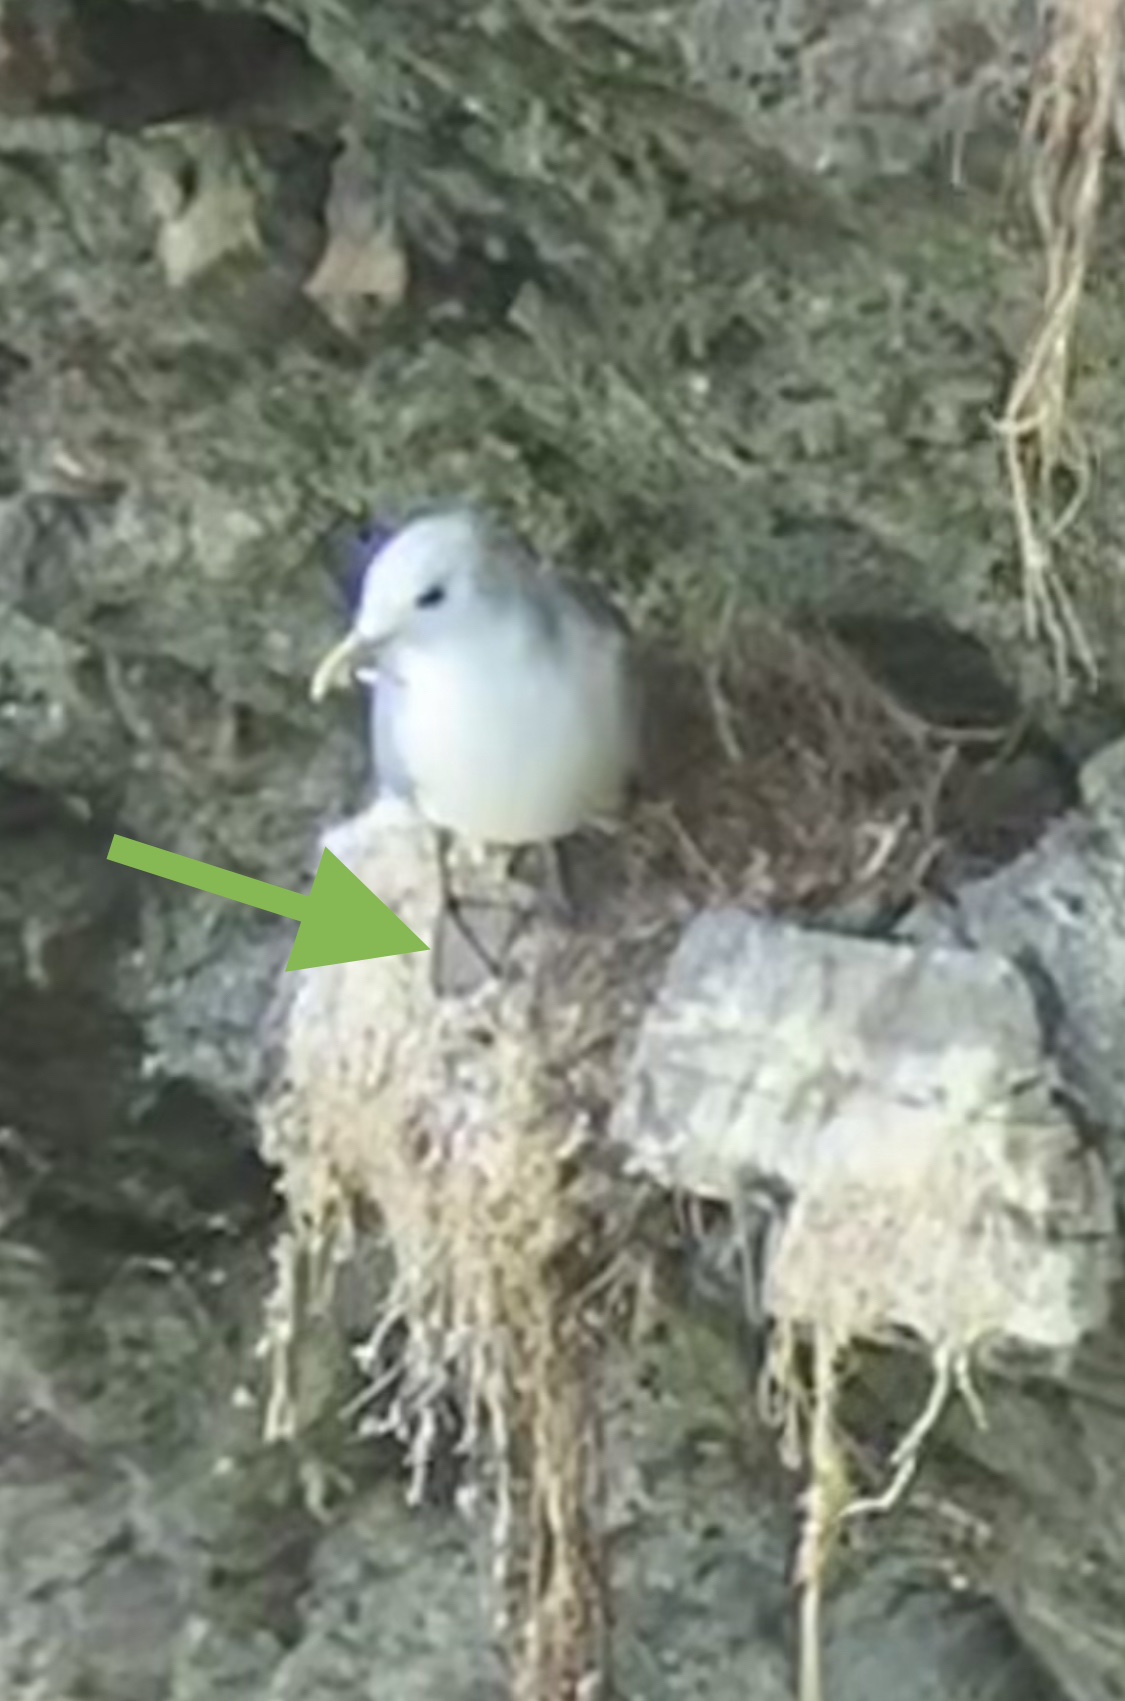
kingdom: Animalia
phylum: Chordata
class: Aves
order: Charadriiformes
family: Laridae
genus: Rissa
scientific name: Rissa tridactyla
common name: Black-legged kittiwake
